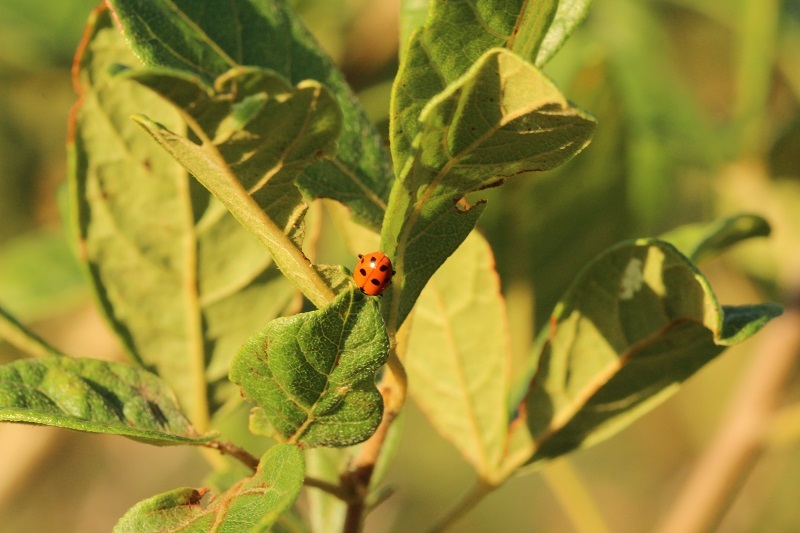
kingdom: Animalia
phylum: Arthropoda
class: Insecta
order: Coleoptera
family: Coccinellidae
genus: Hippodamia
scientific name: Hippodamia variegata
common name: Ladybird beetle
